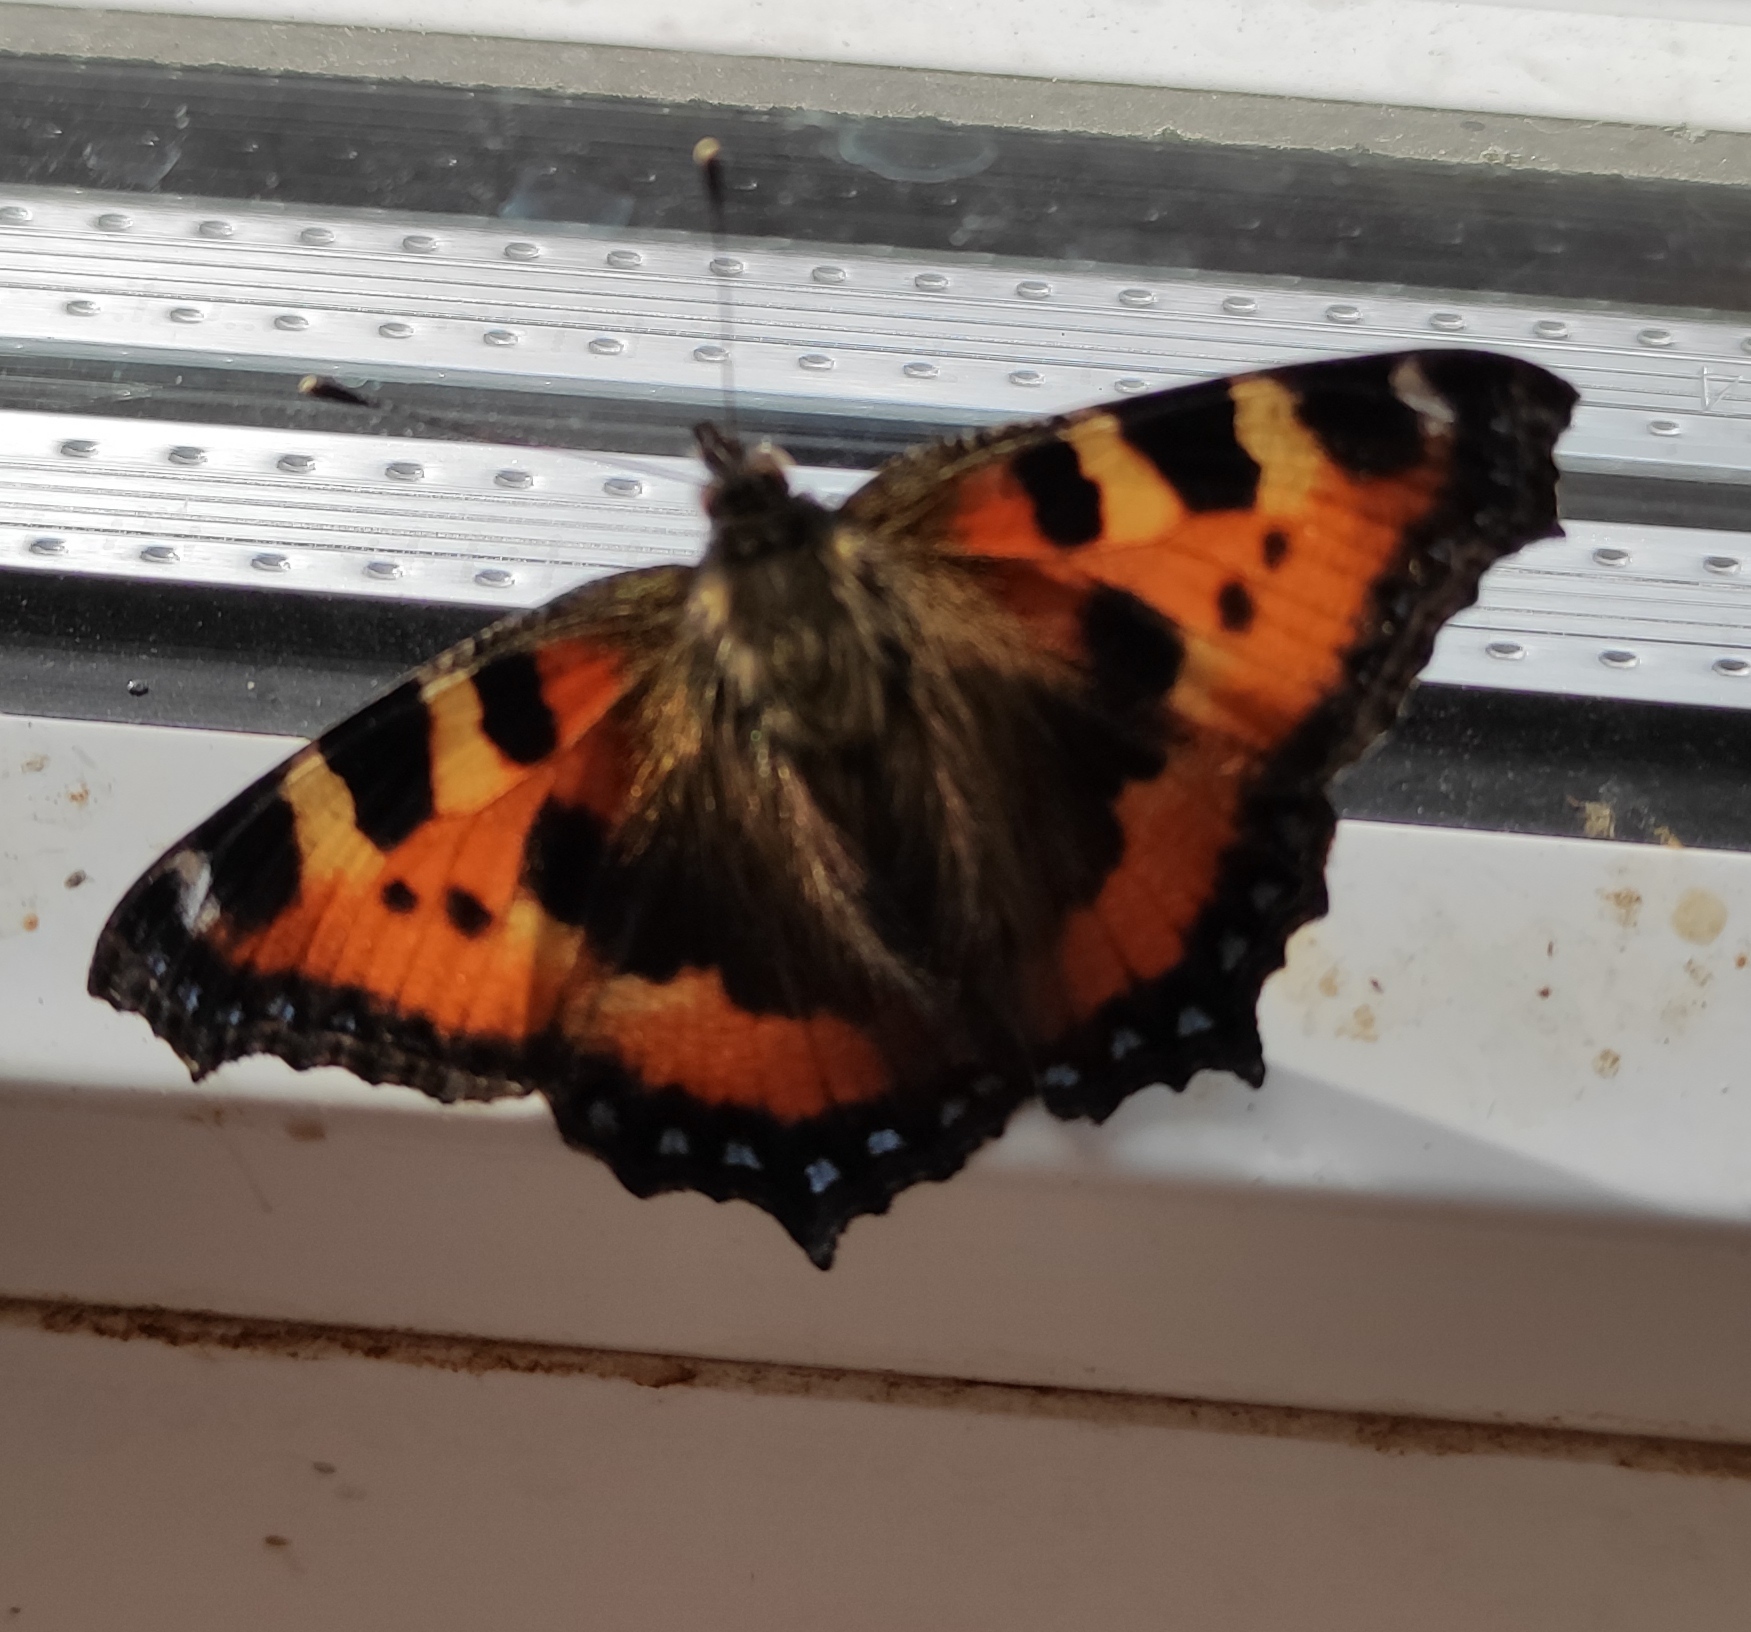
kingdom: Animalia
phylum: Arthropoda
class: Insecta
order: Lepidoptera
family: Nymphalidae
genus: Aglais
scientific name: Aglais urticae
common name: Small tortoiseshell
